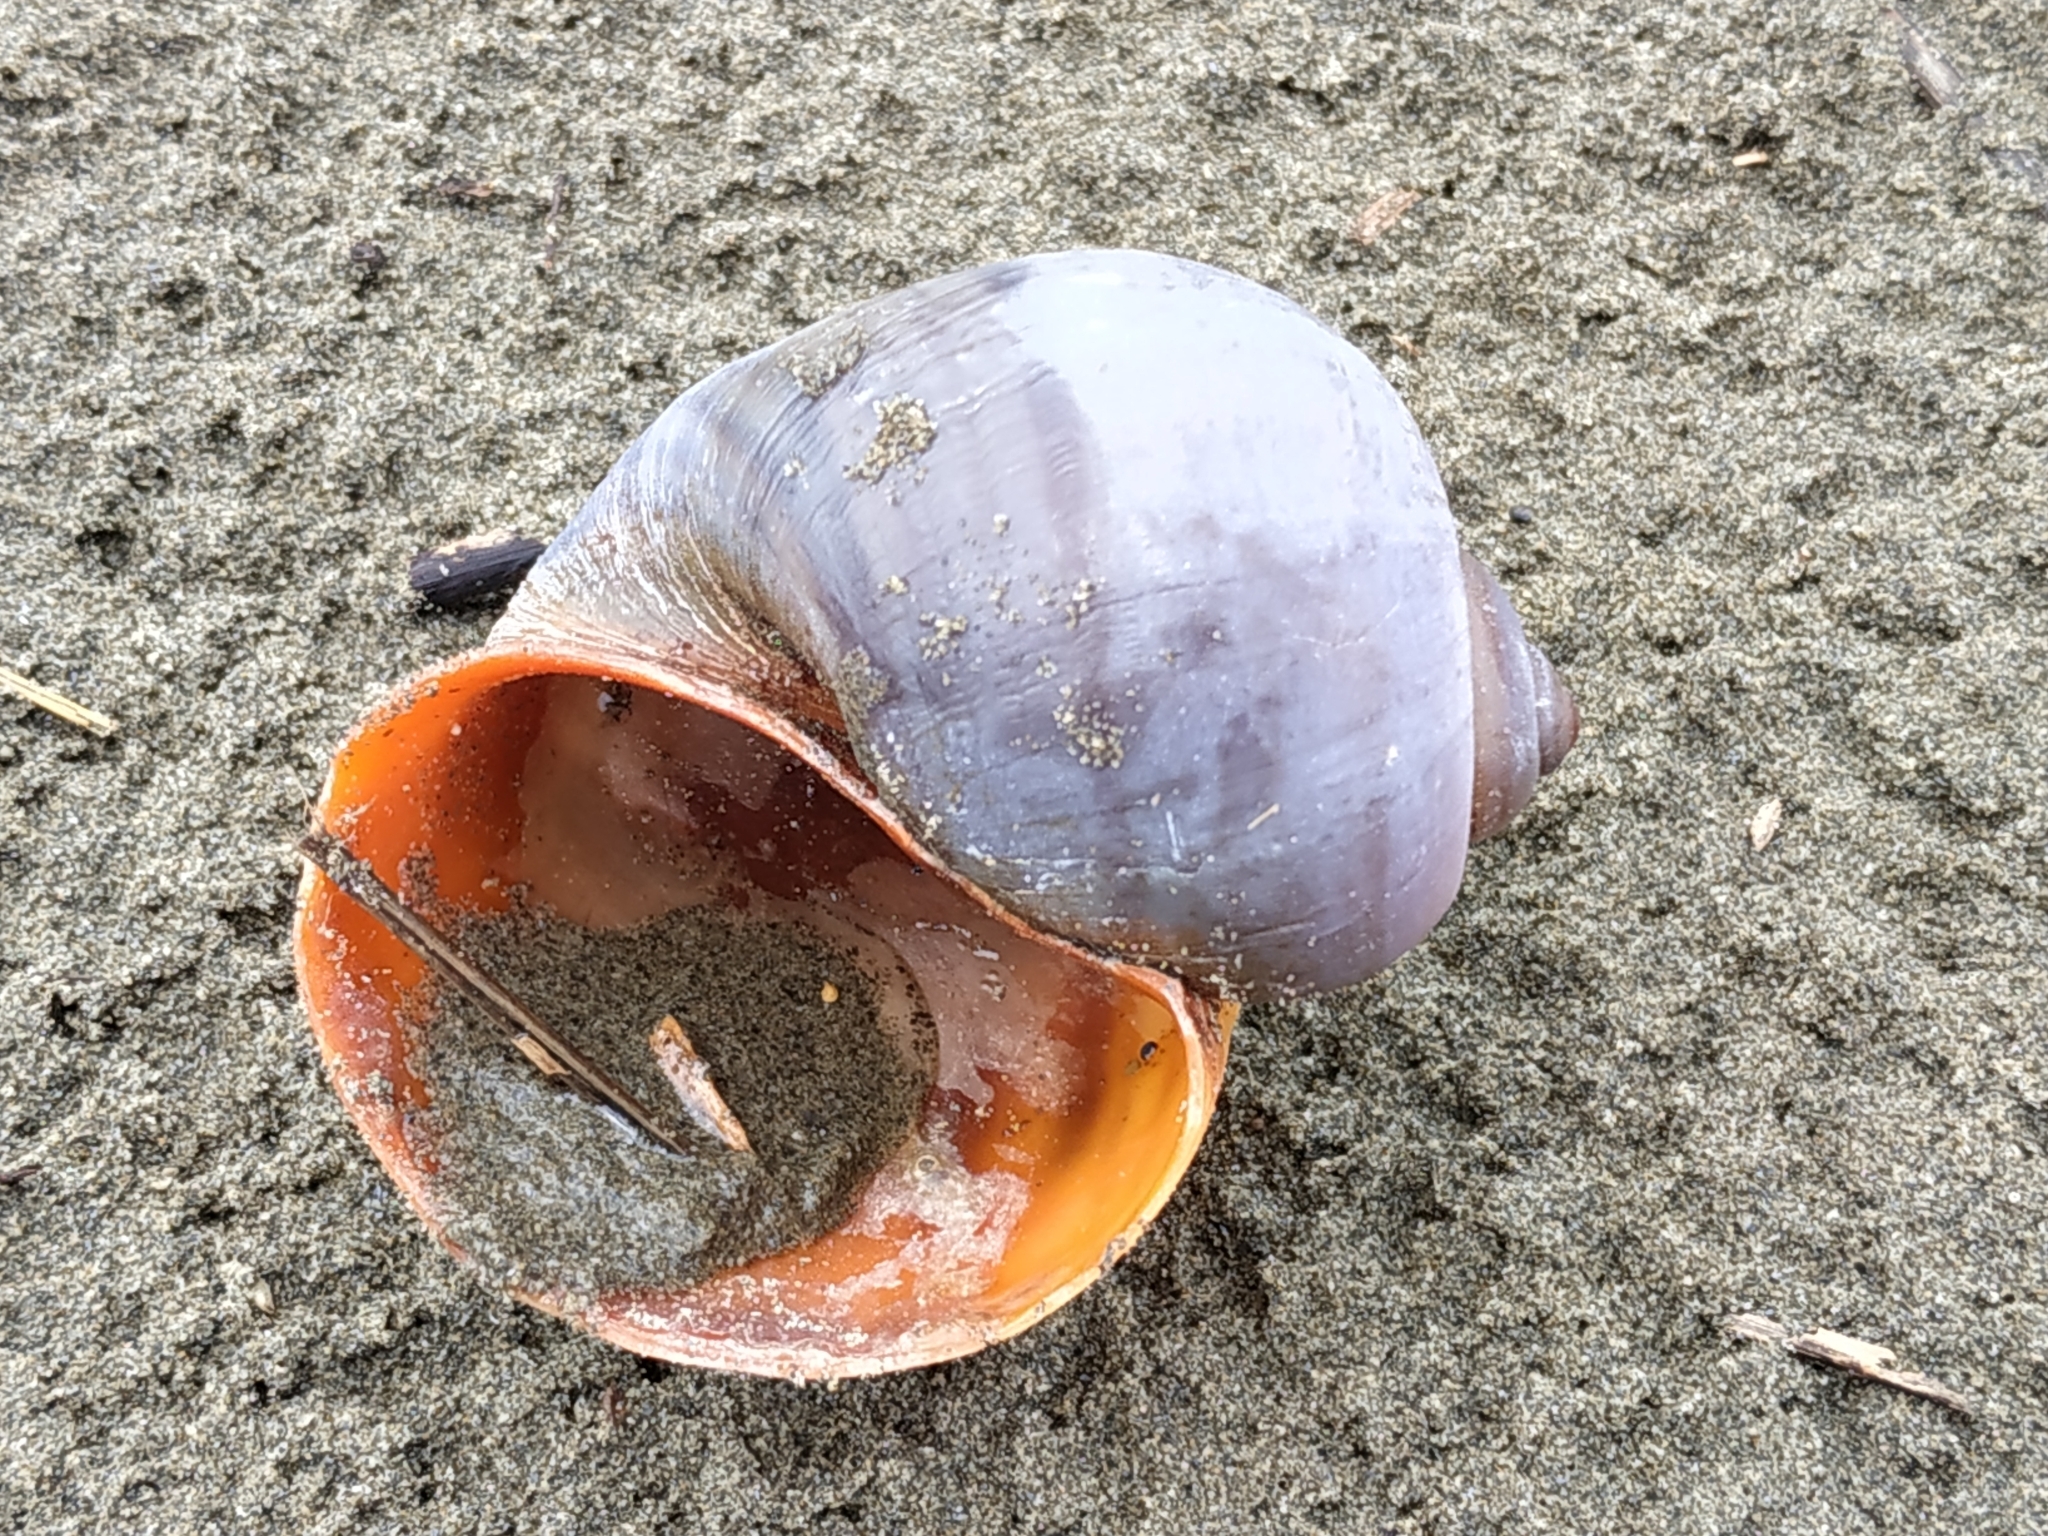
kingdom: Animalia
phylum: Mollusca
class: Gastropoda
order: Architaenioglossa
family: Ampullariidae
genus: Pomacea
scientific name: Pomacea canaliculata
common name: Channeled applesnail
